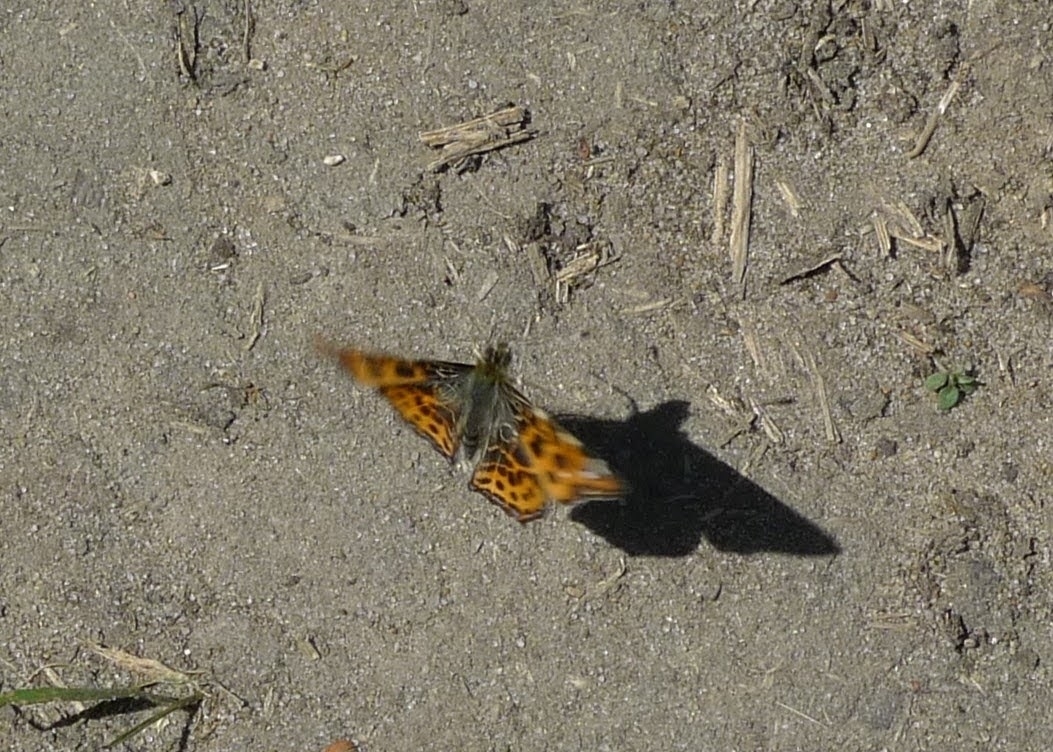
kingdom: Animalia
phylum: Arthropoda
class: Insecta
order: Lepidoptera
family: Nymphalidae
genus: Araschnia
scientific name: Araschnia levana
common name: Map butterfly
